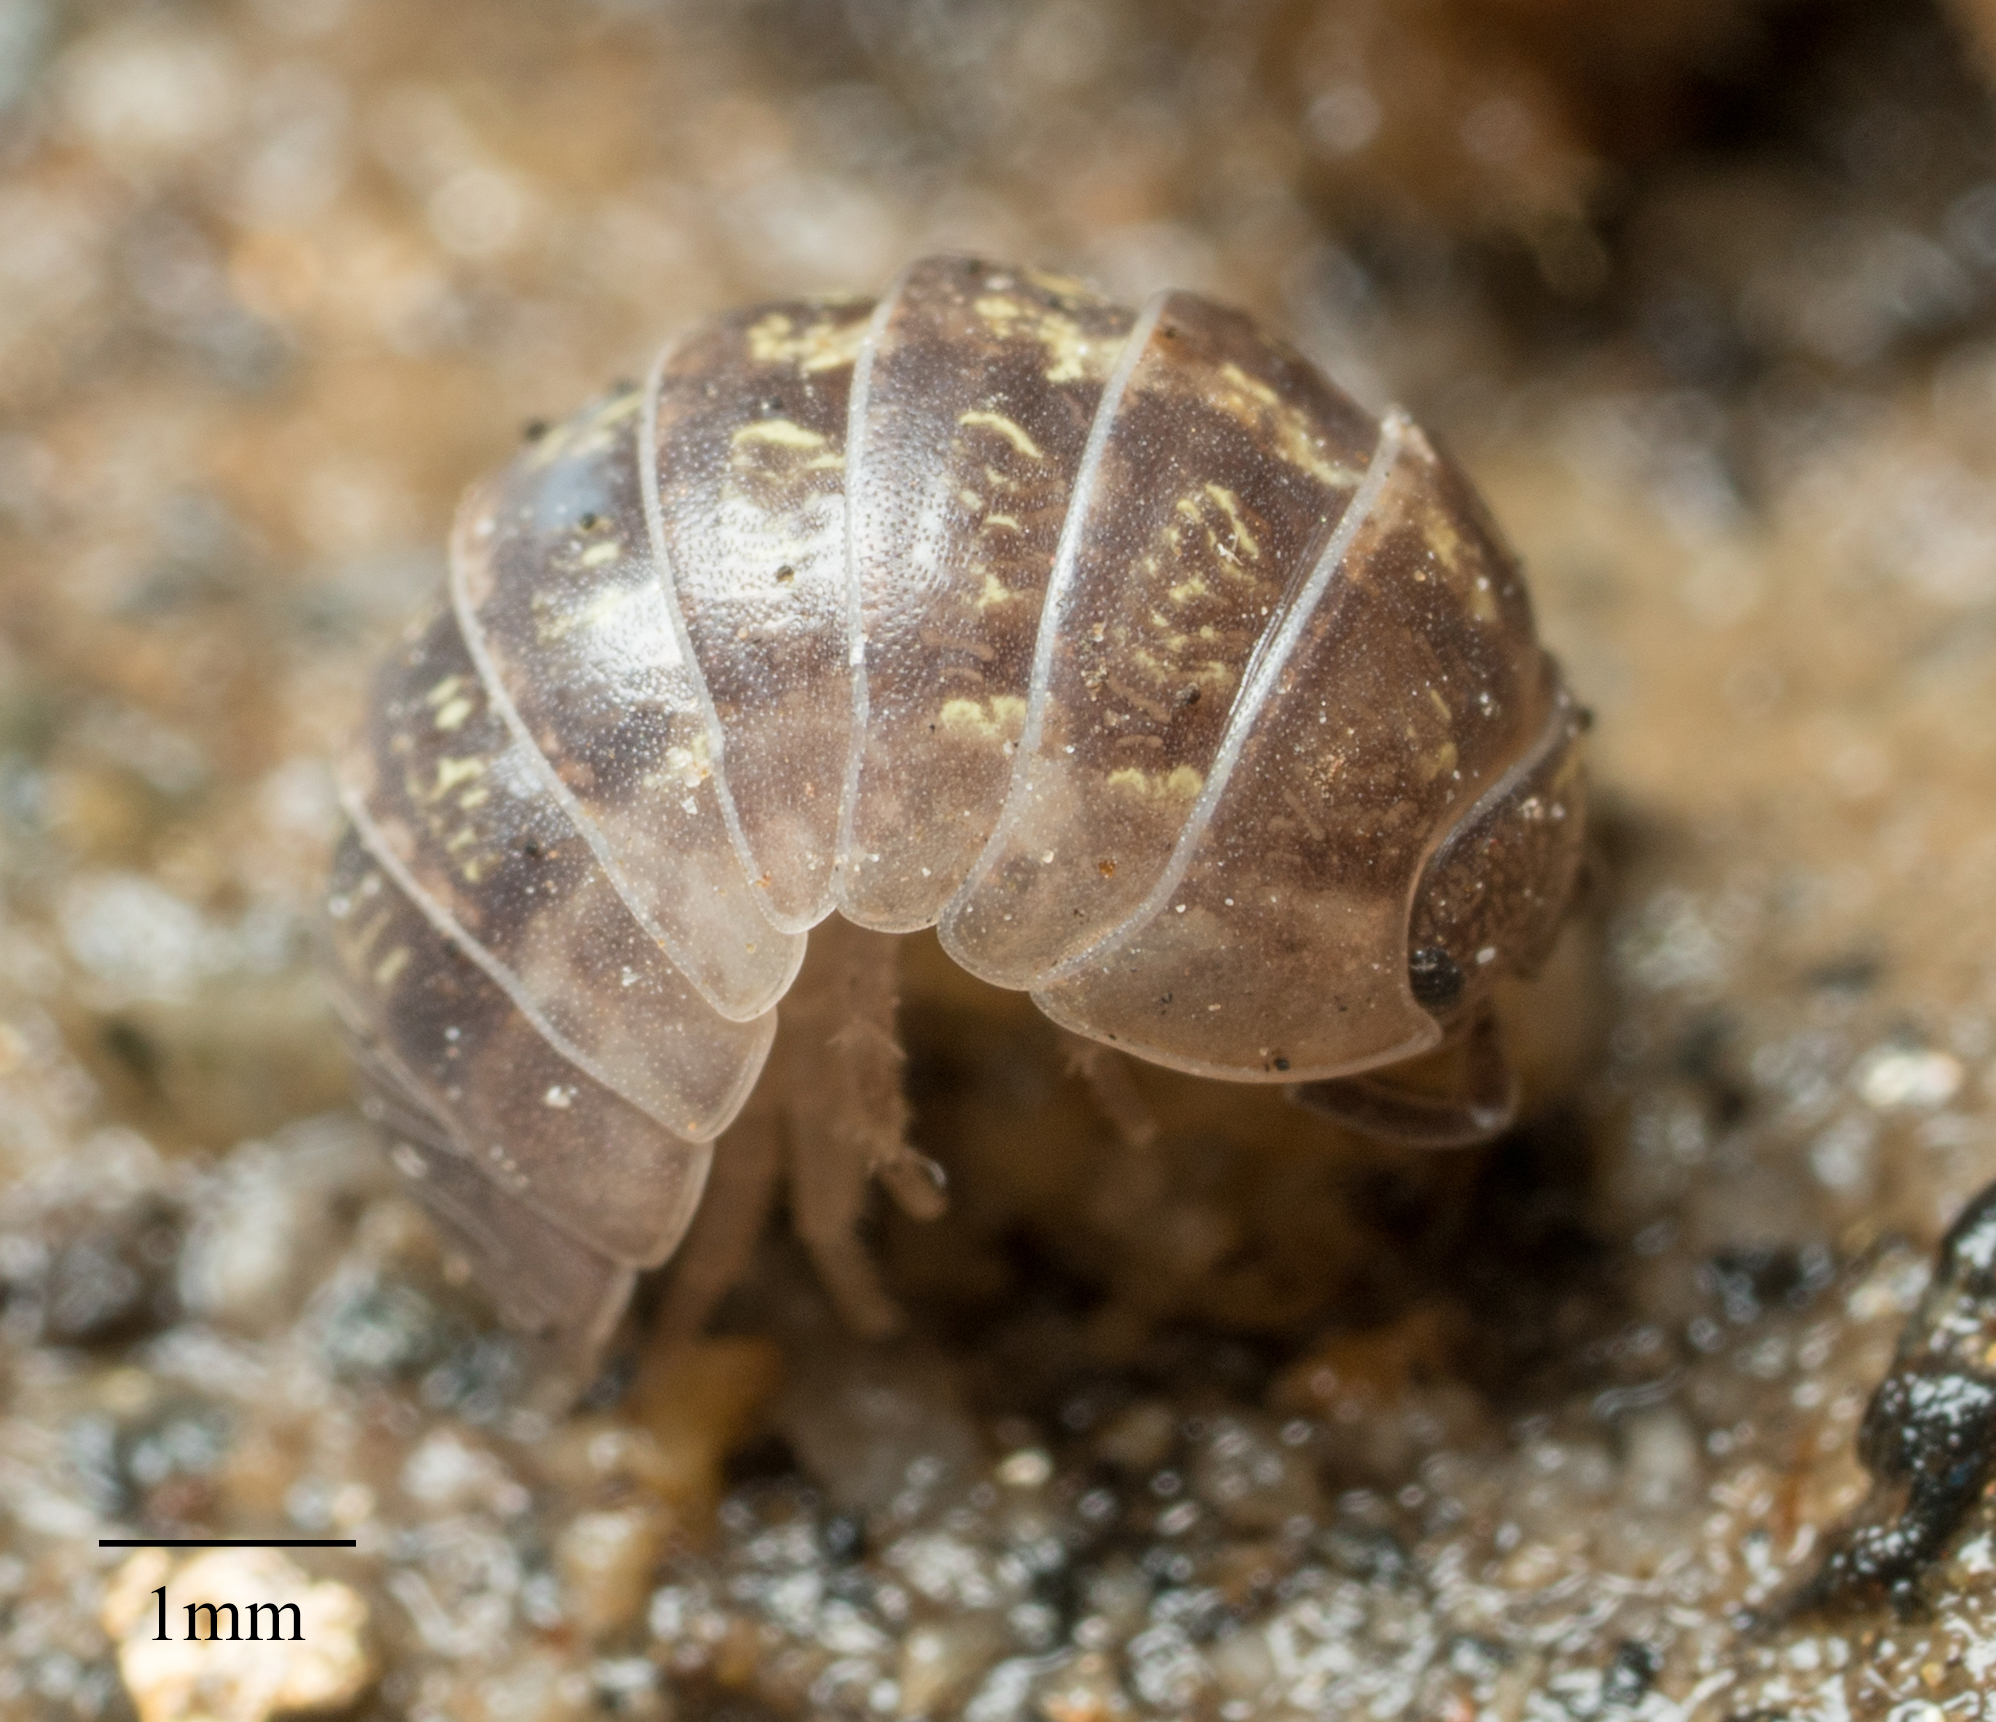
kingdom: Animalia
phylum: Arthropoda
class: Malacostraca
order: Isopoda
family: Armadillidiidae
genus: Armadillidium
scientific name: Armadillidium vulgare
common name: Common pill woodlouse
